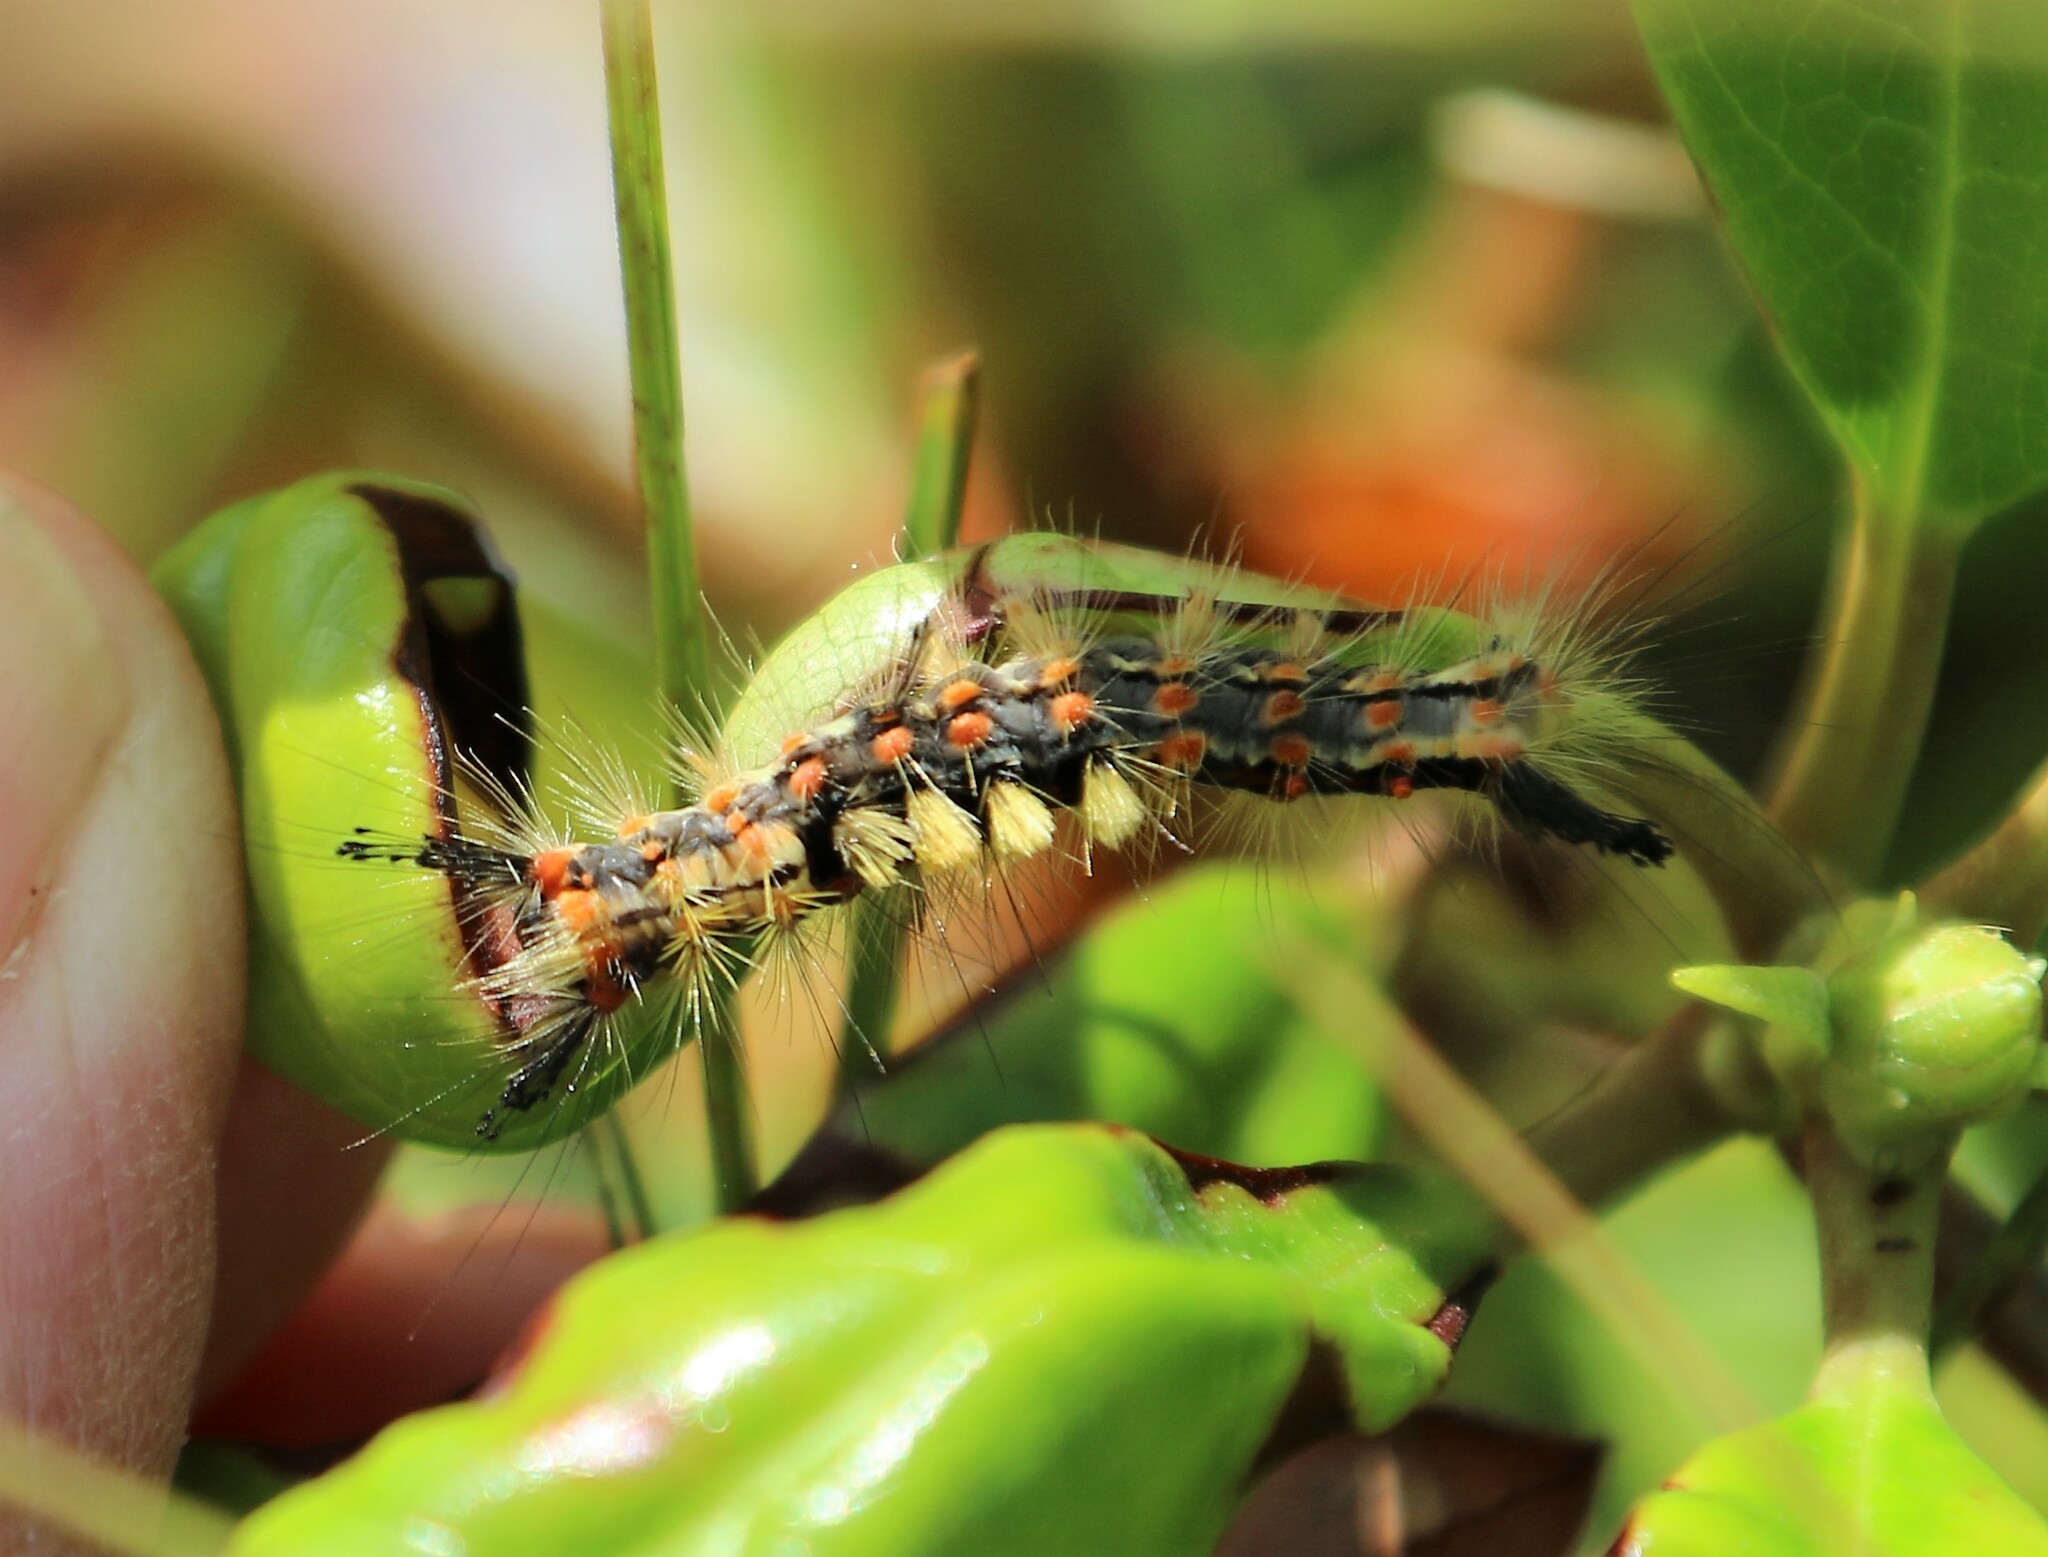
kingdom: Animalia
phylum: Arthropoda
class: Insecta
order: Lepidoptera
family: Erebidae
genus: Orgyia
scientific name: Orgyia antiqua
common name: Vapourer
